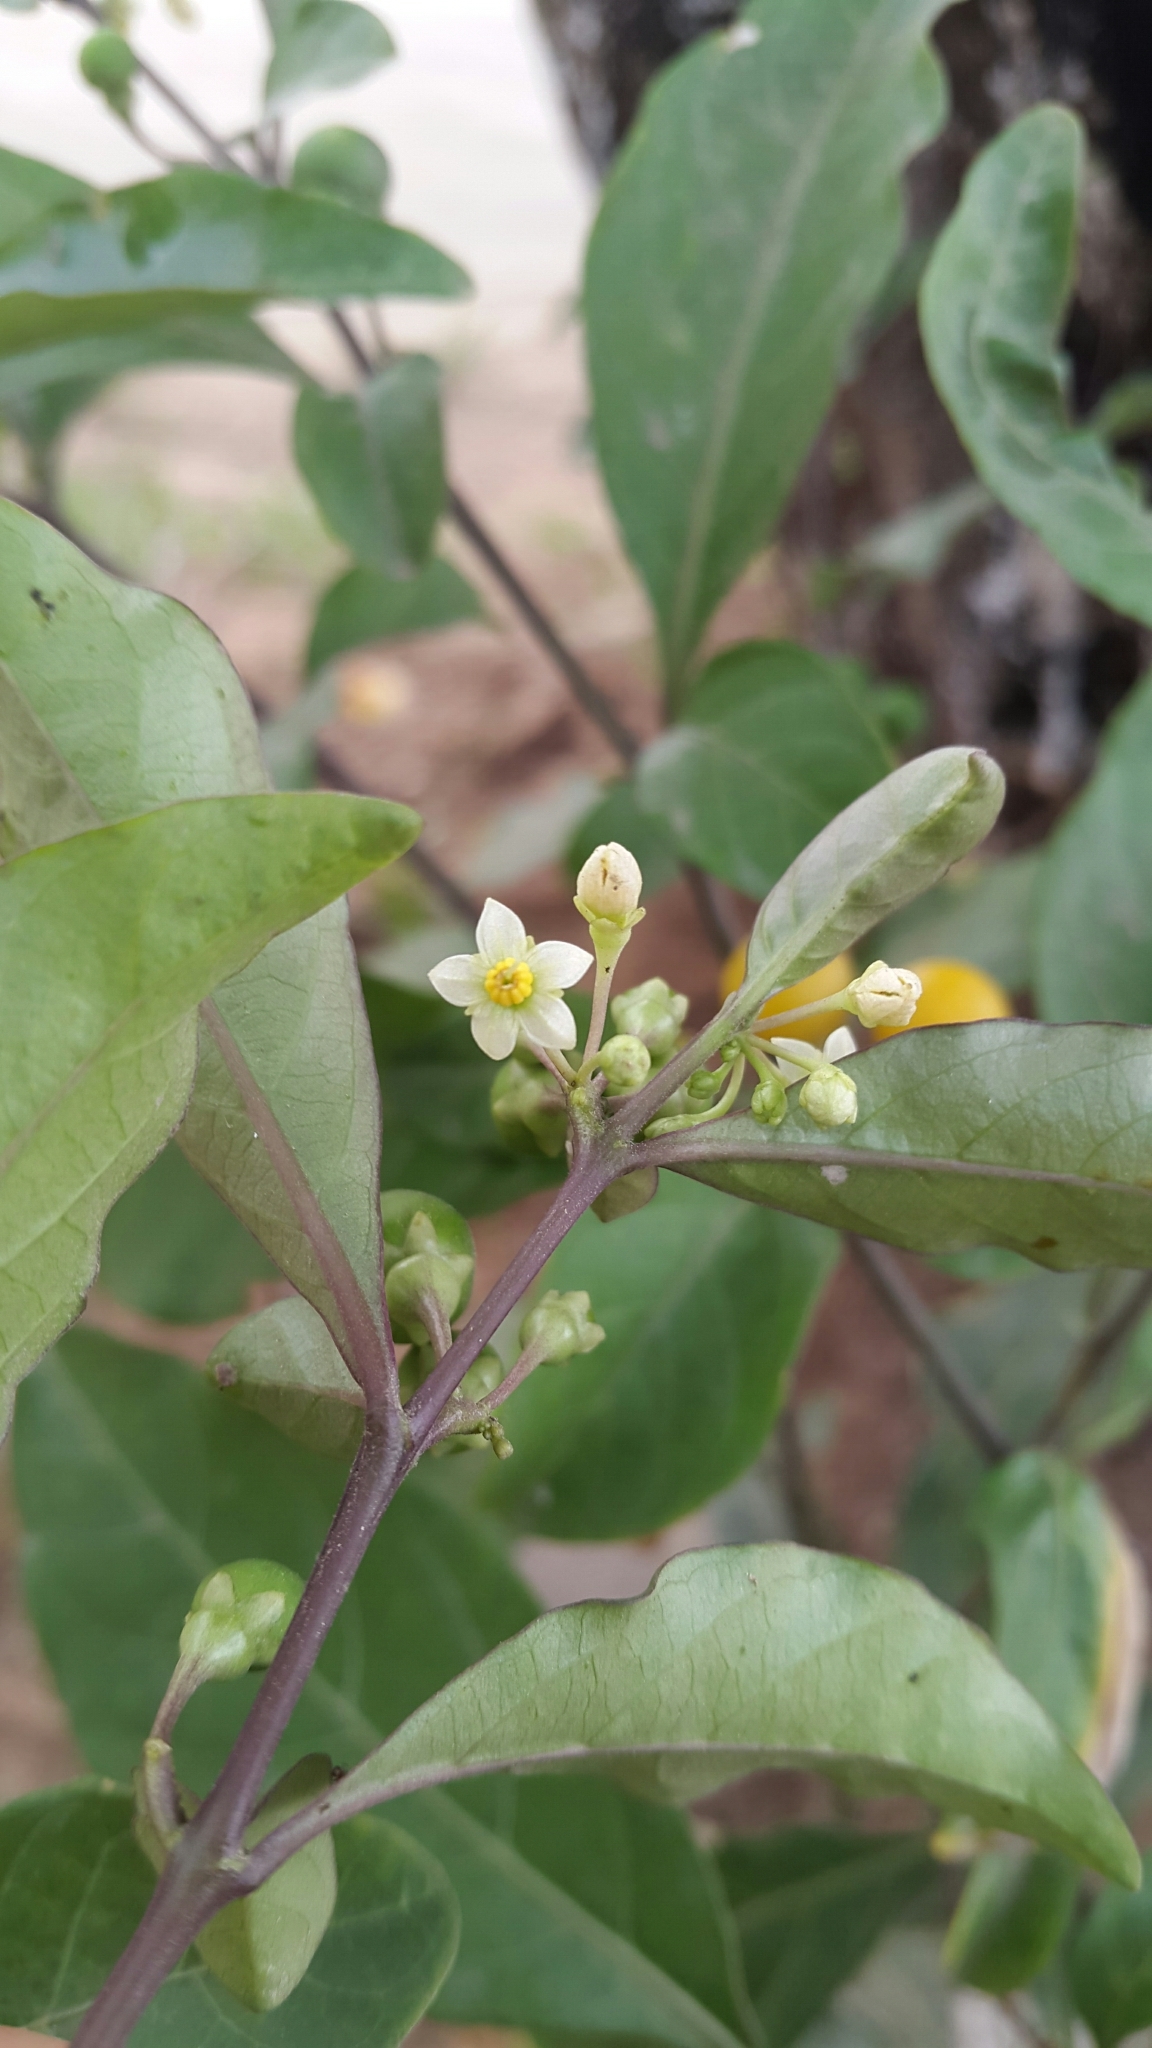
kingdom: Plantae
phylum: Tracheophyta
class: Magnoliopsida
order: Solanales
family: Solanaceae
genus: Solanum
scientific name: Solanum diphyllum
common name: Twoleaf nightshade
